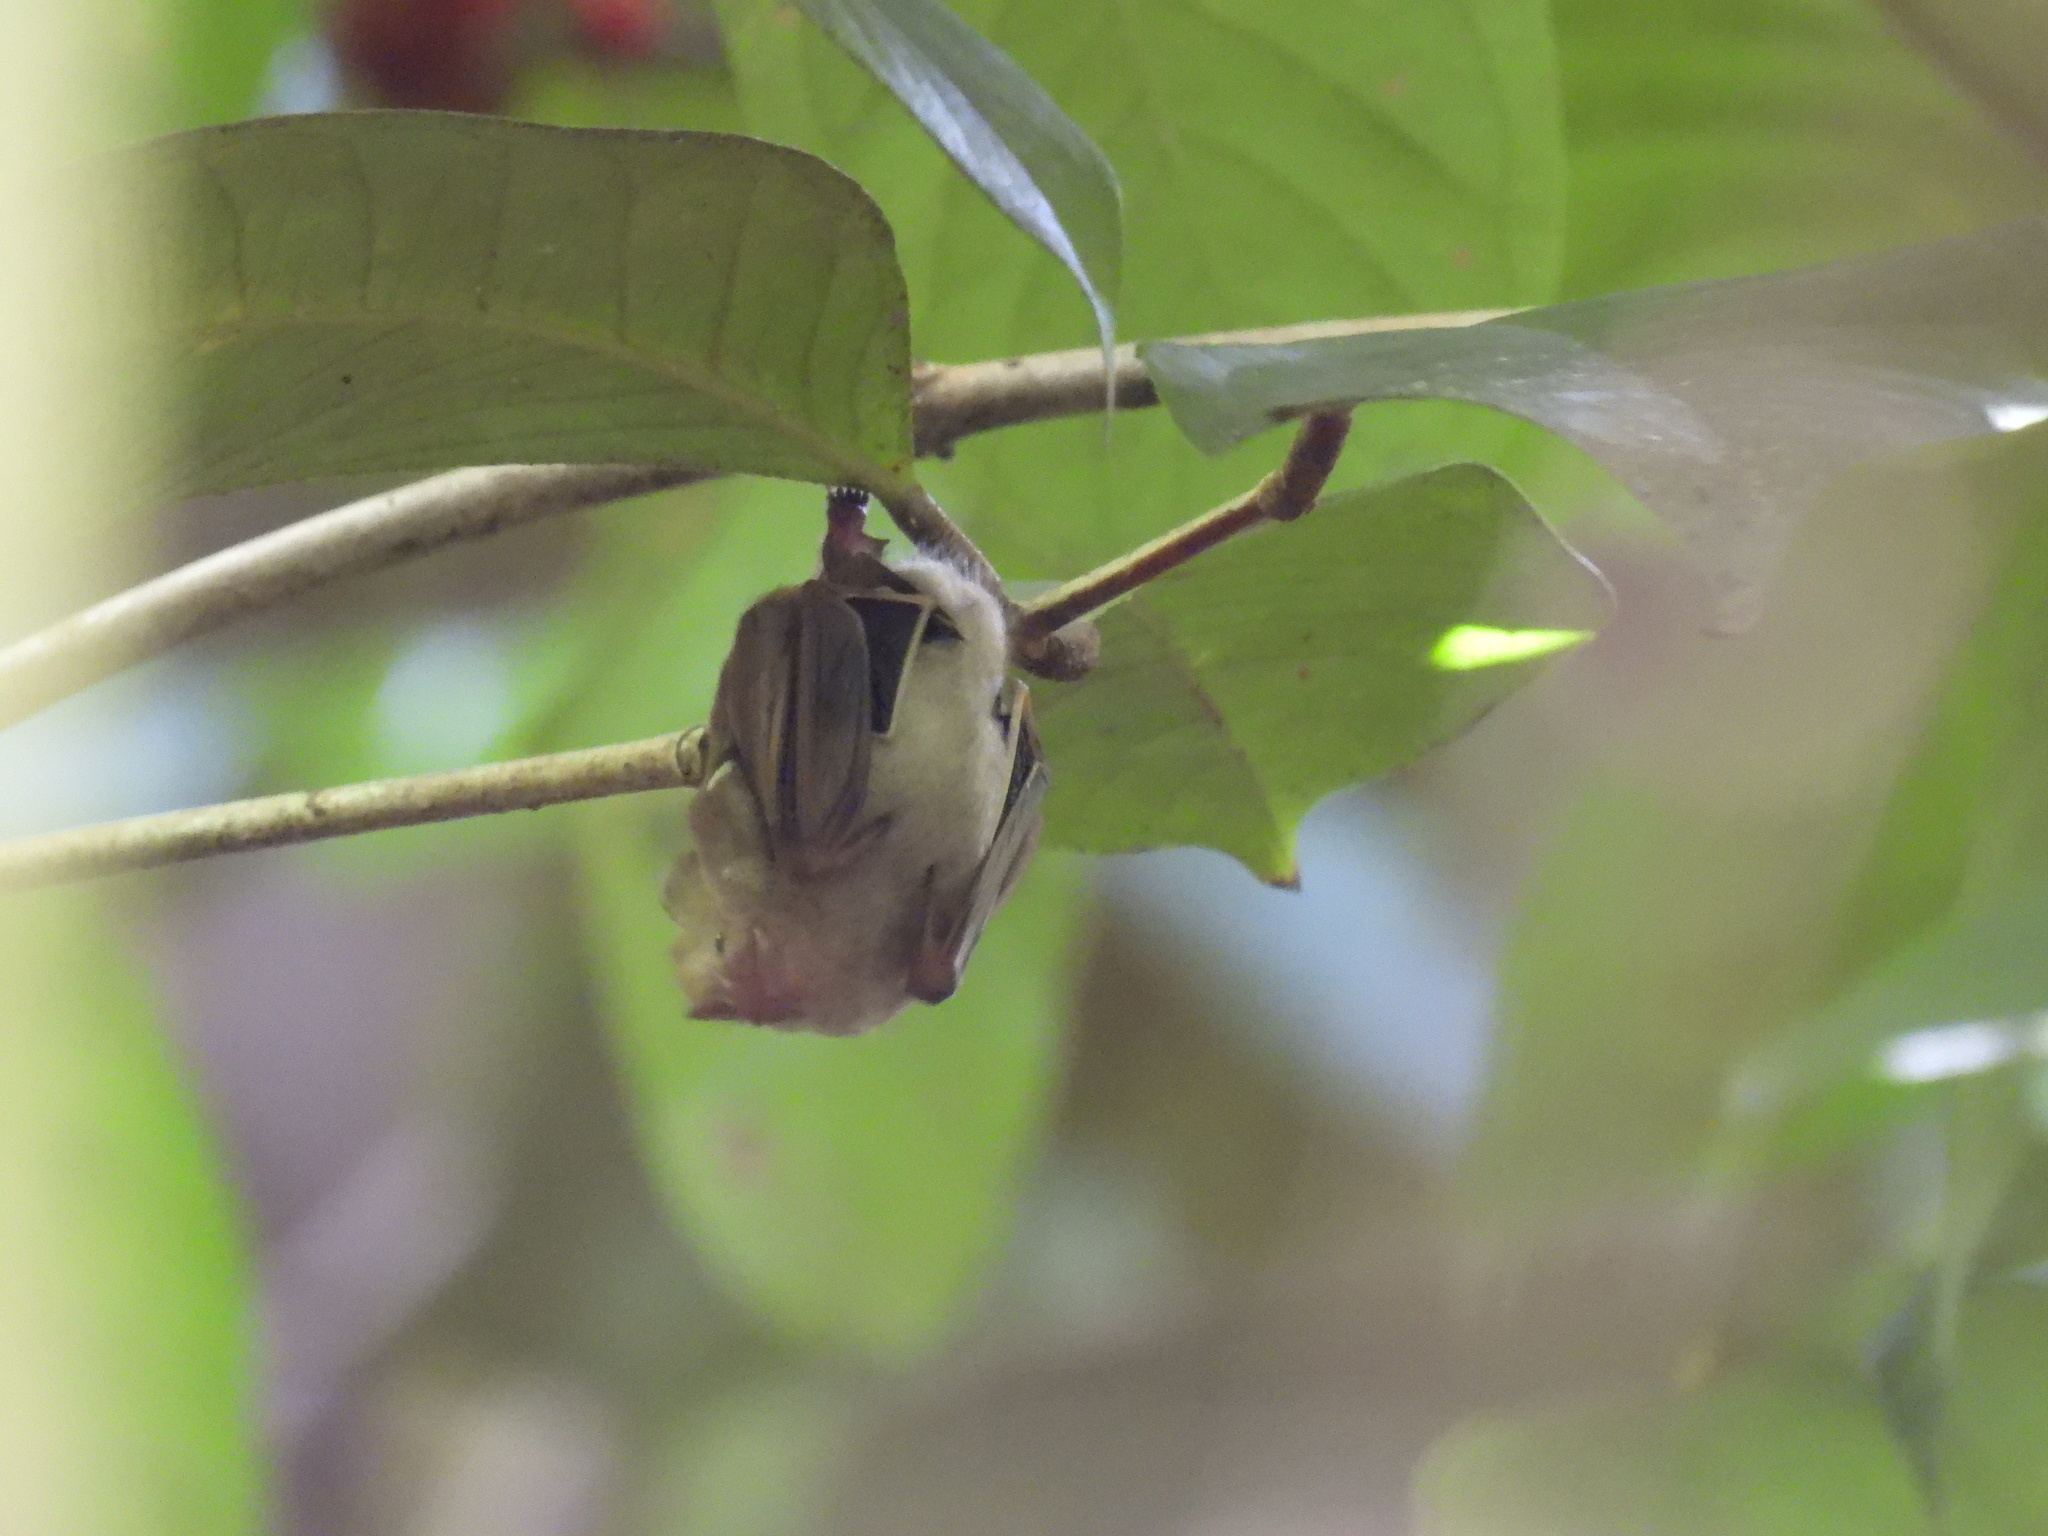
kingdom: Animalia
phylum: Chordata
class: Mammalia
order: Chiroptera
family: Phyllostomidae
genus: Ariteus
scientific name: Ariteus flavescens
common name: Jamaican fig-eating bat
